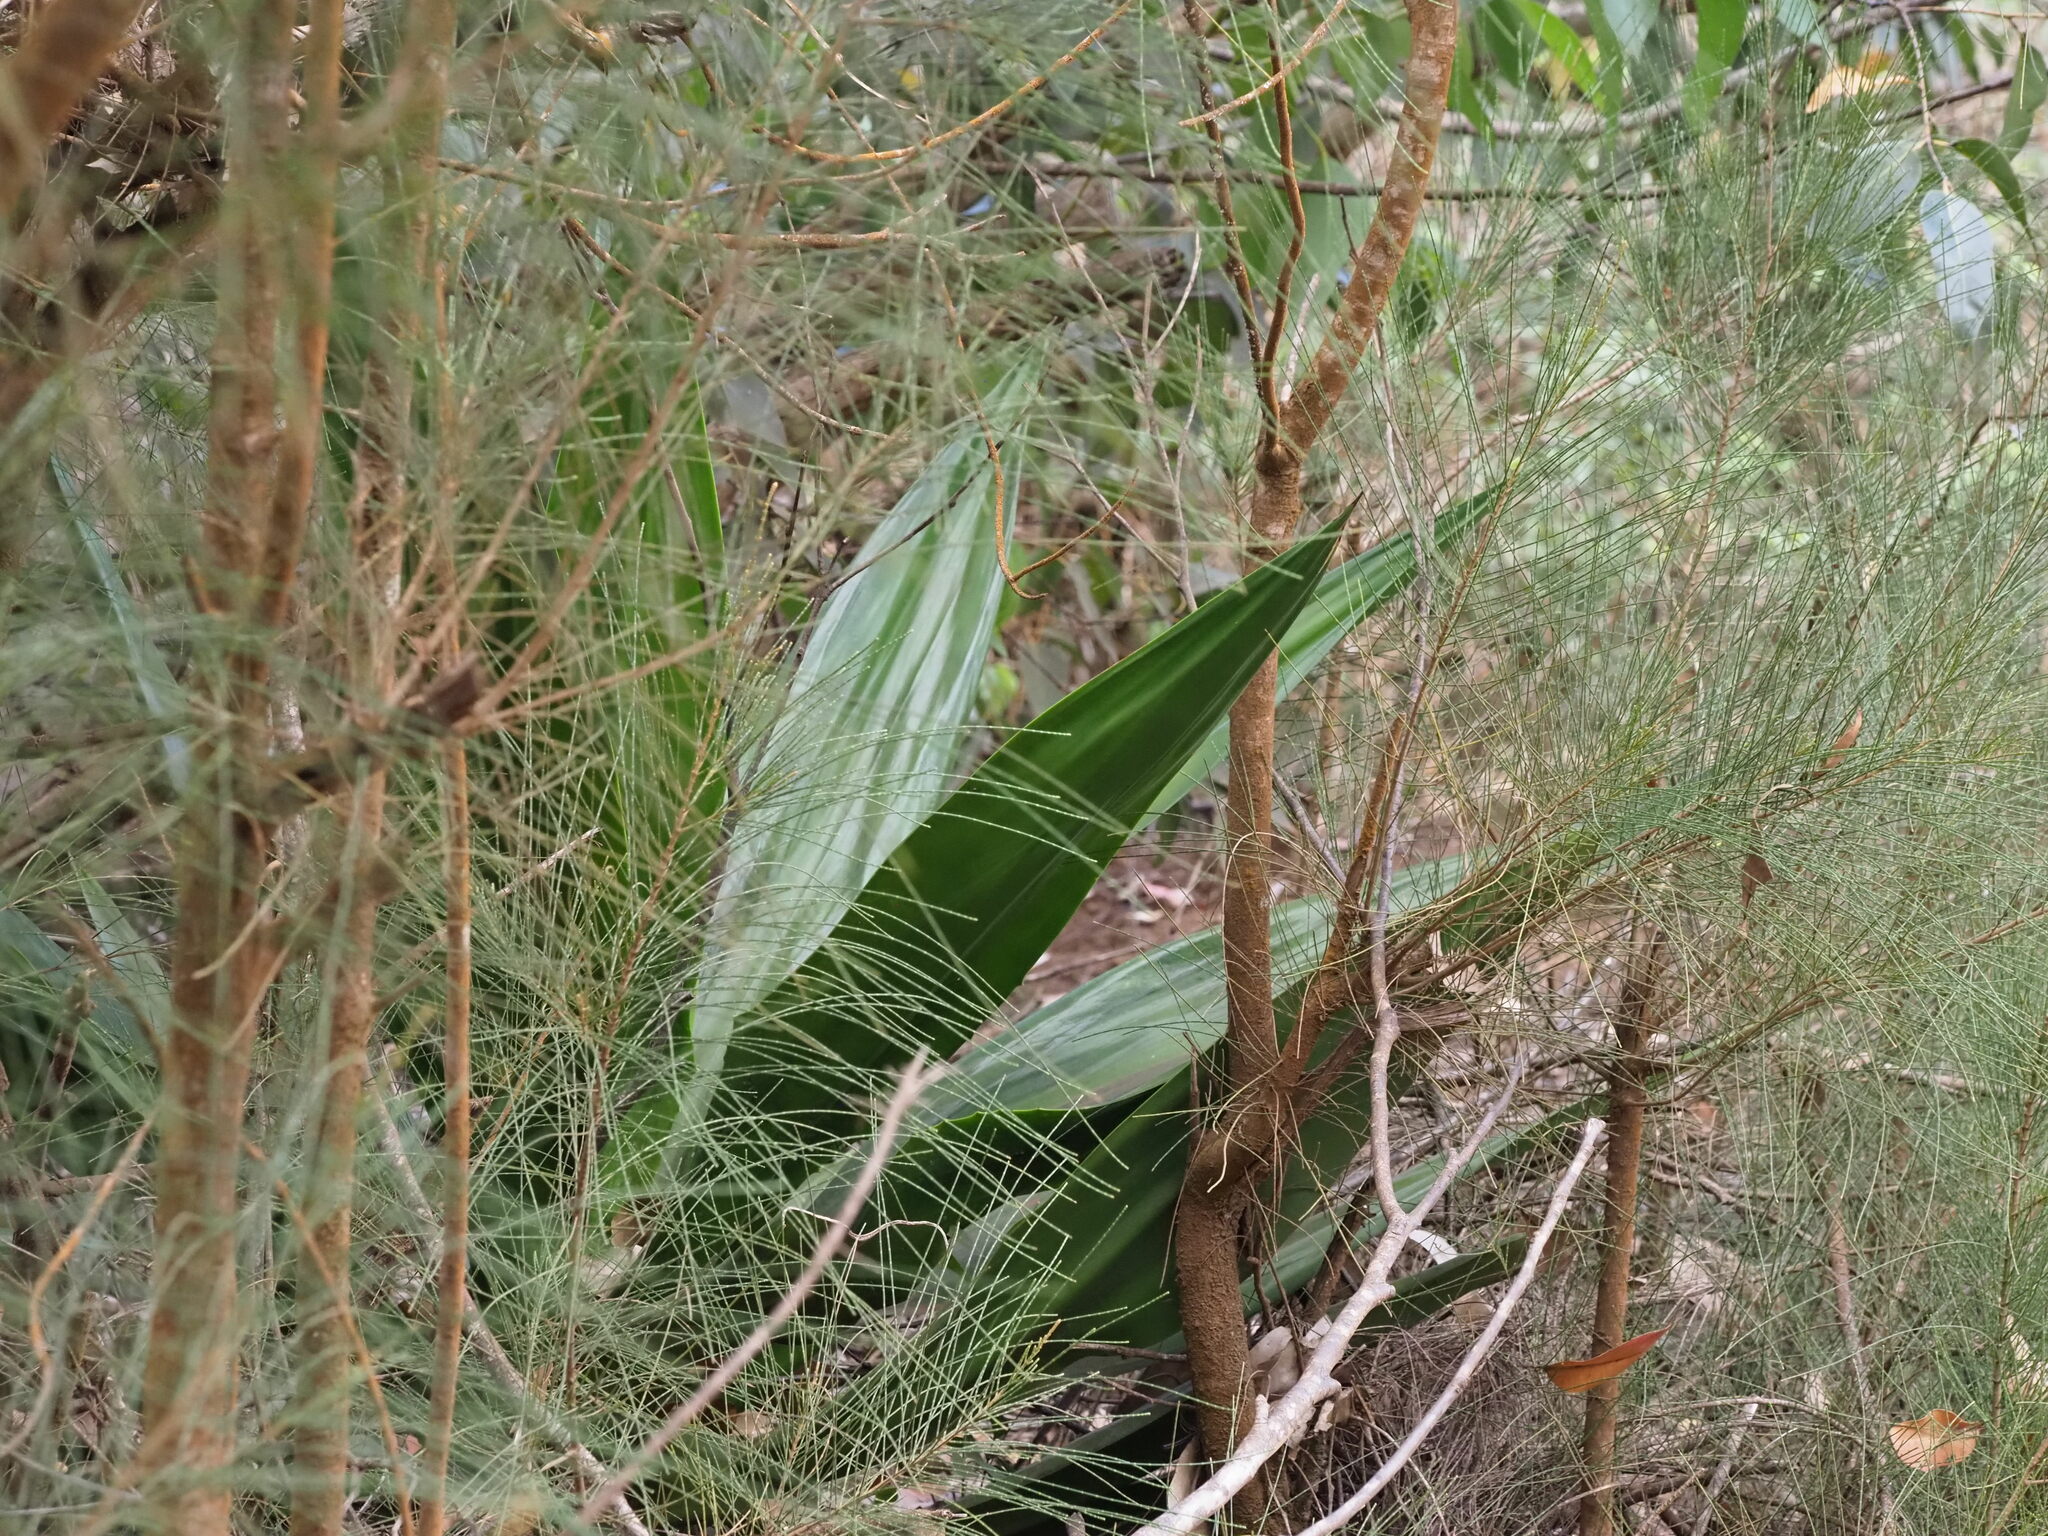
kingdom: Plantae
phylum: Tracheophyta
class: Liliopsida
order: Asparagales
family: Asparagaceae
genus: Furcraea
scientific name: Furcraea foetida
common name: Mauritius hemp
